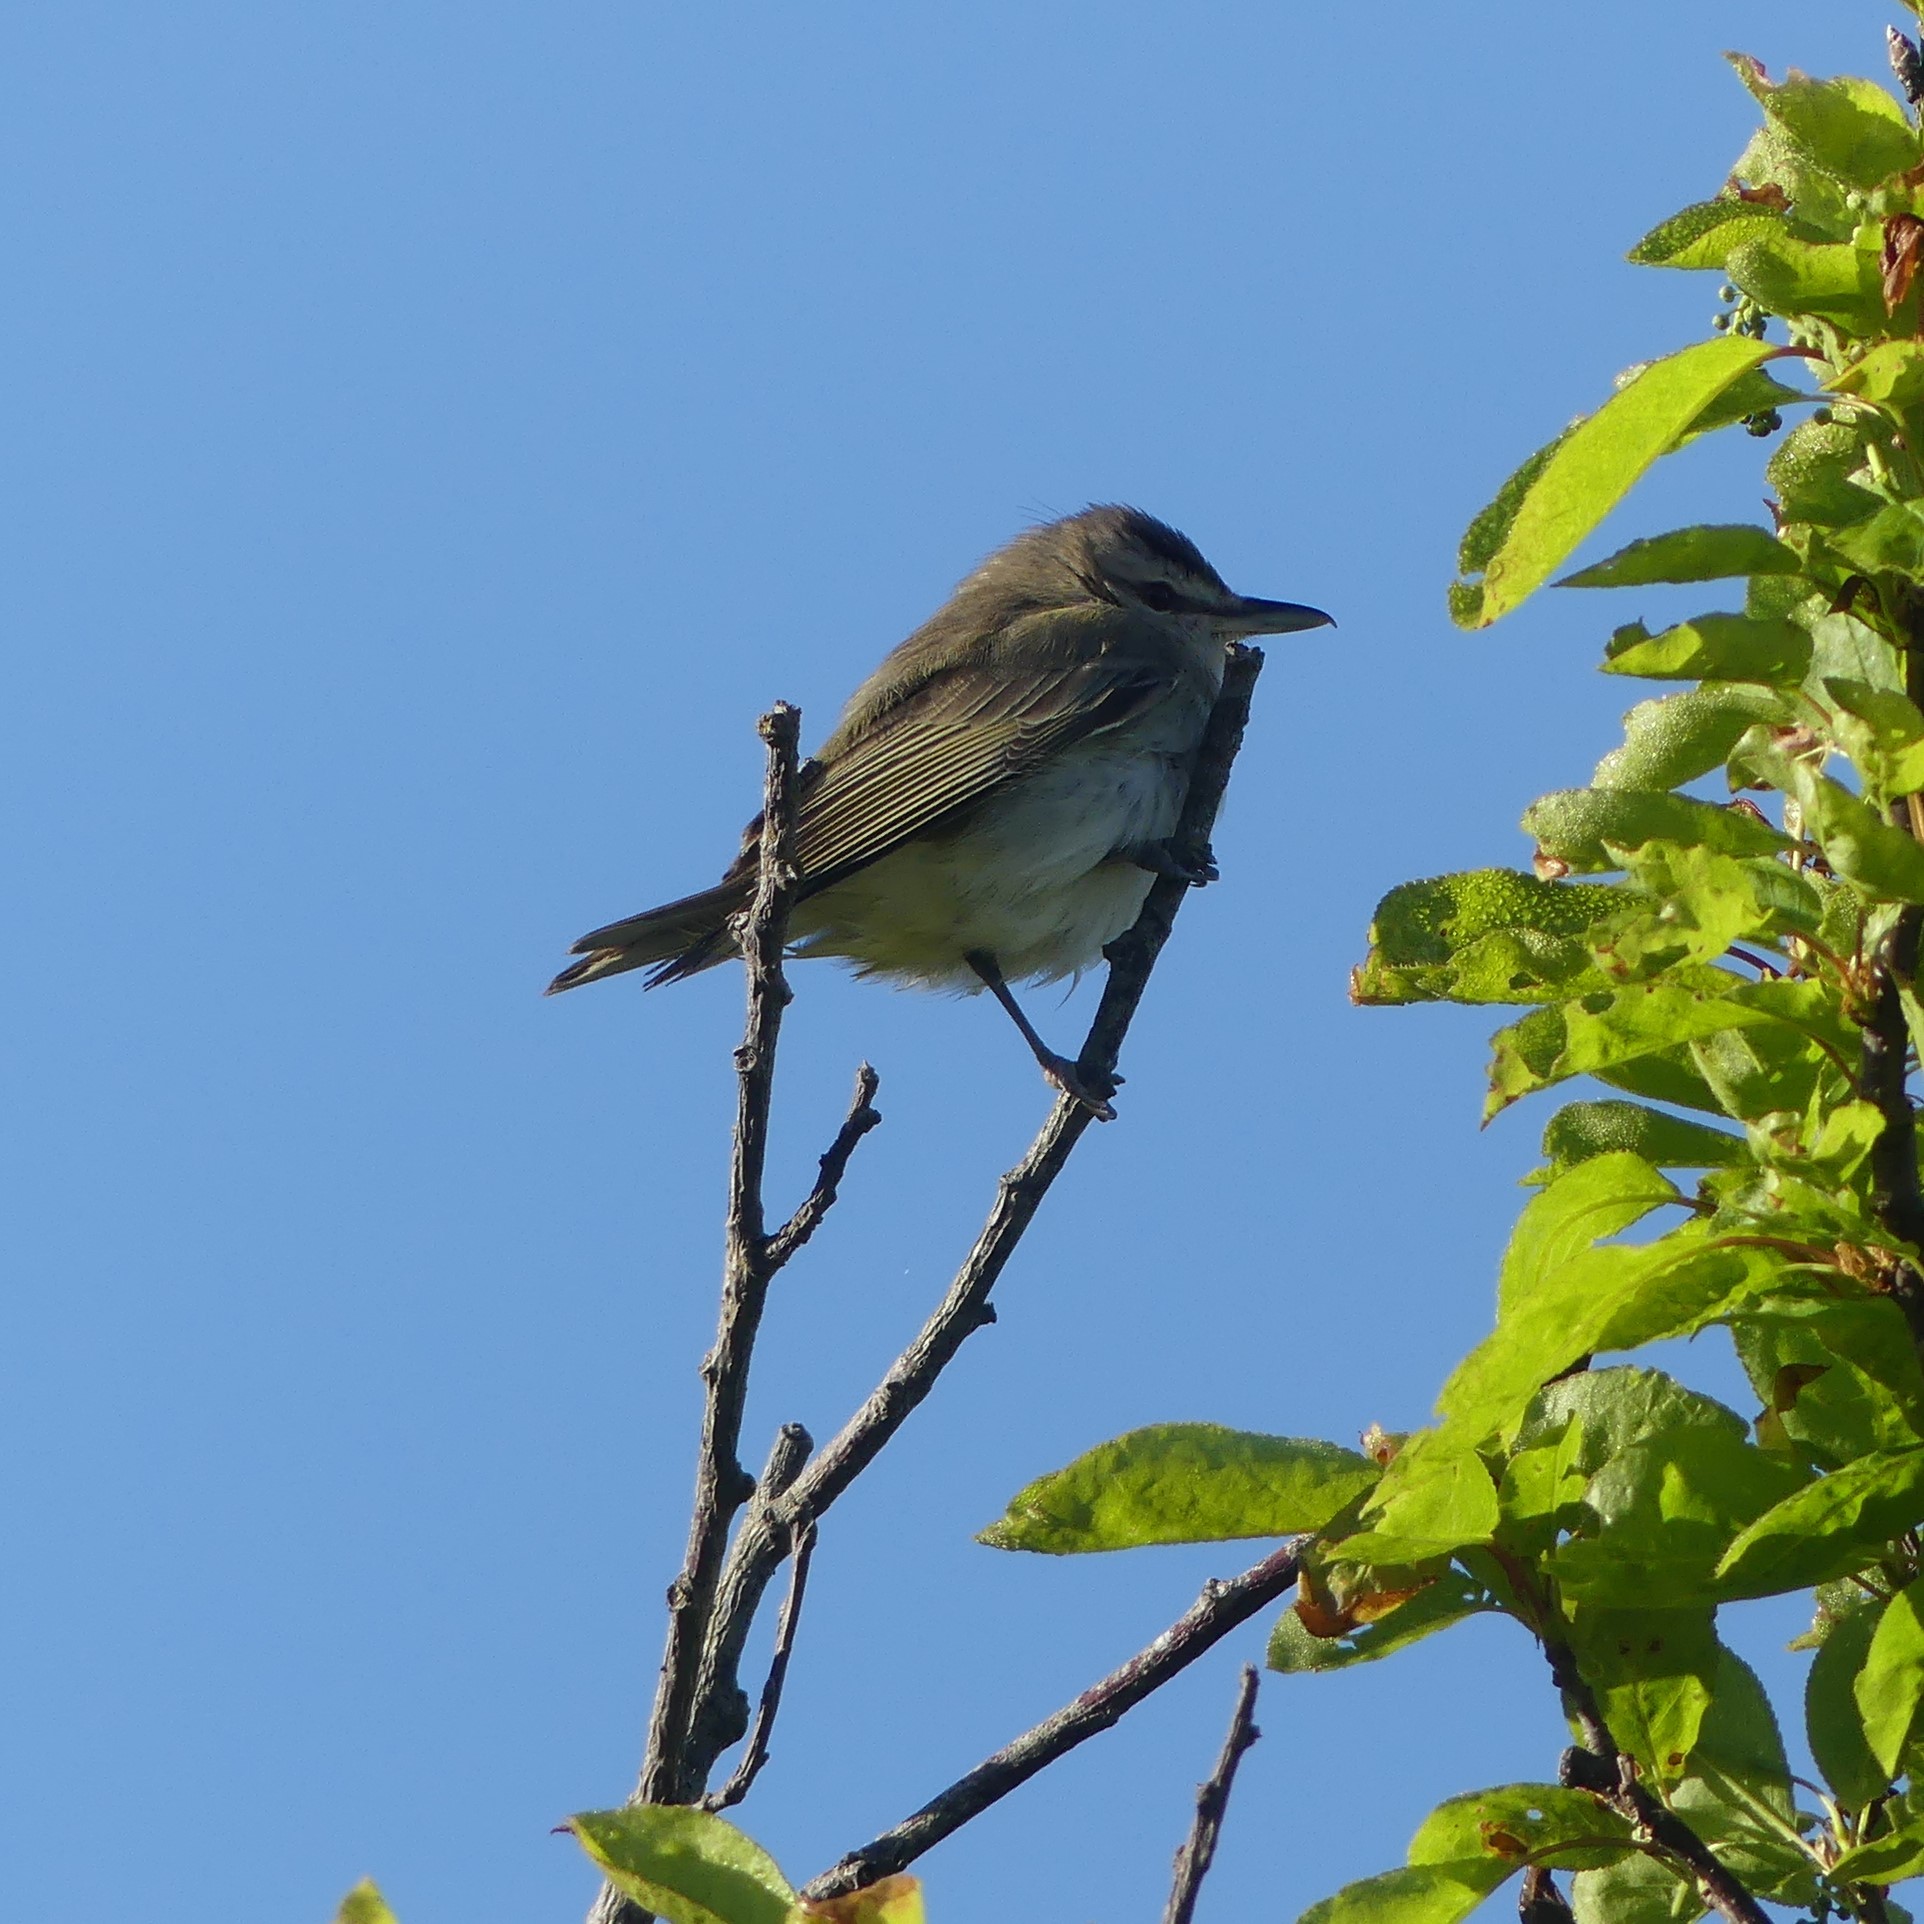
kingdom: Animalia
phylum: Chordata
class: Aves
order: Passeriformes
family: Vireonidae
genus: Vireo
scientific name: Vireo olivaceus
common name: Red-eyed vireo
